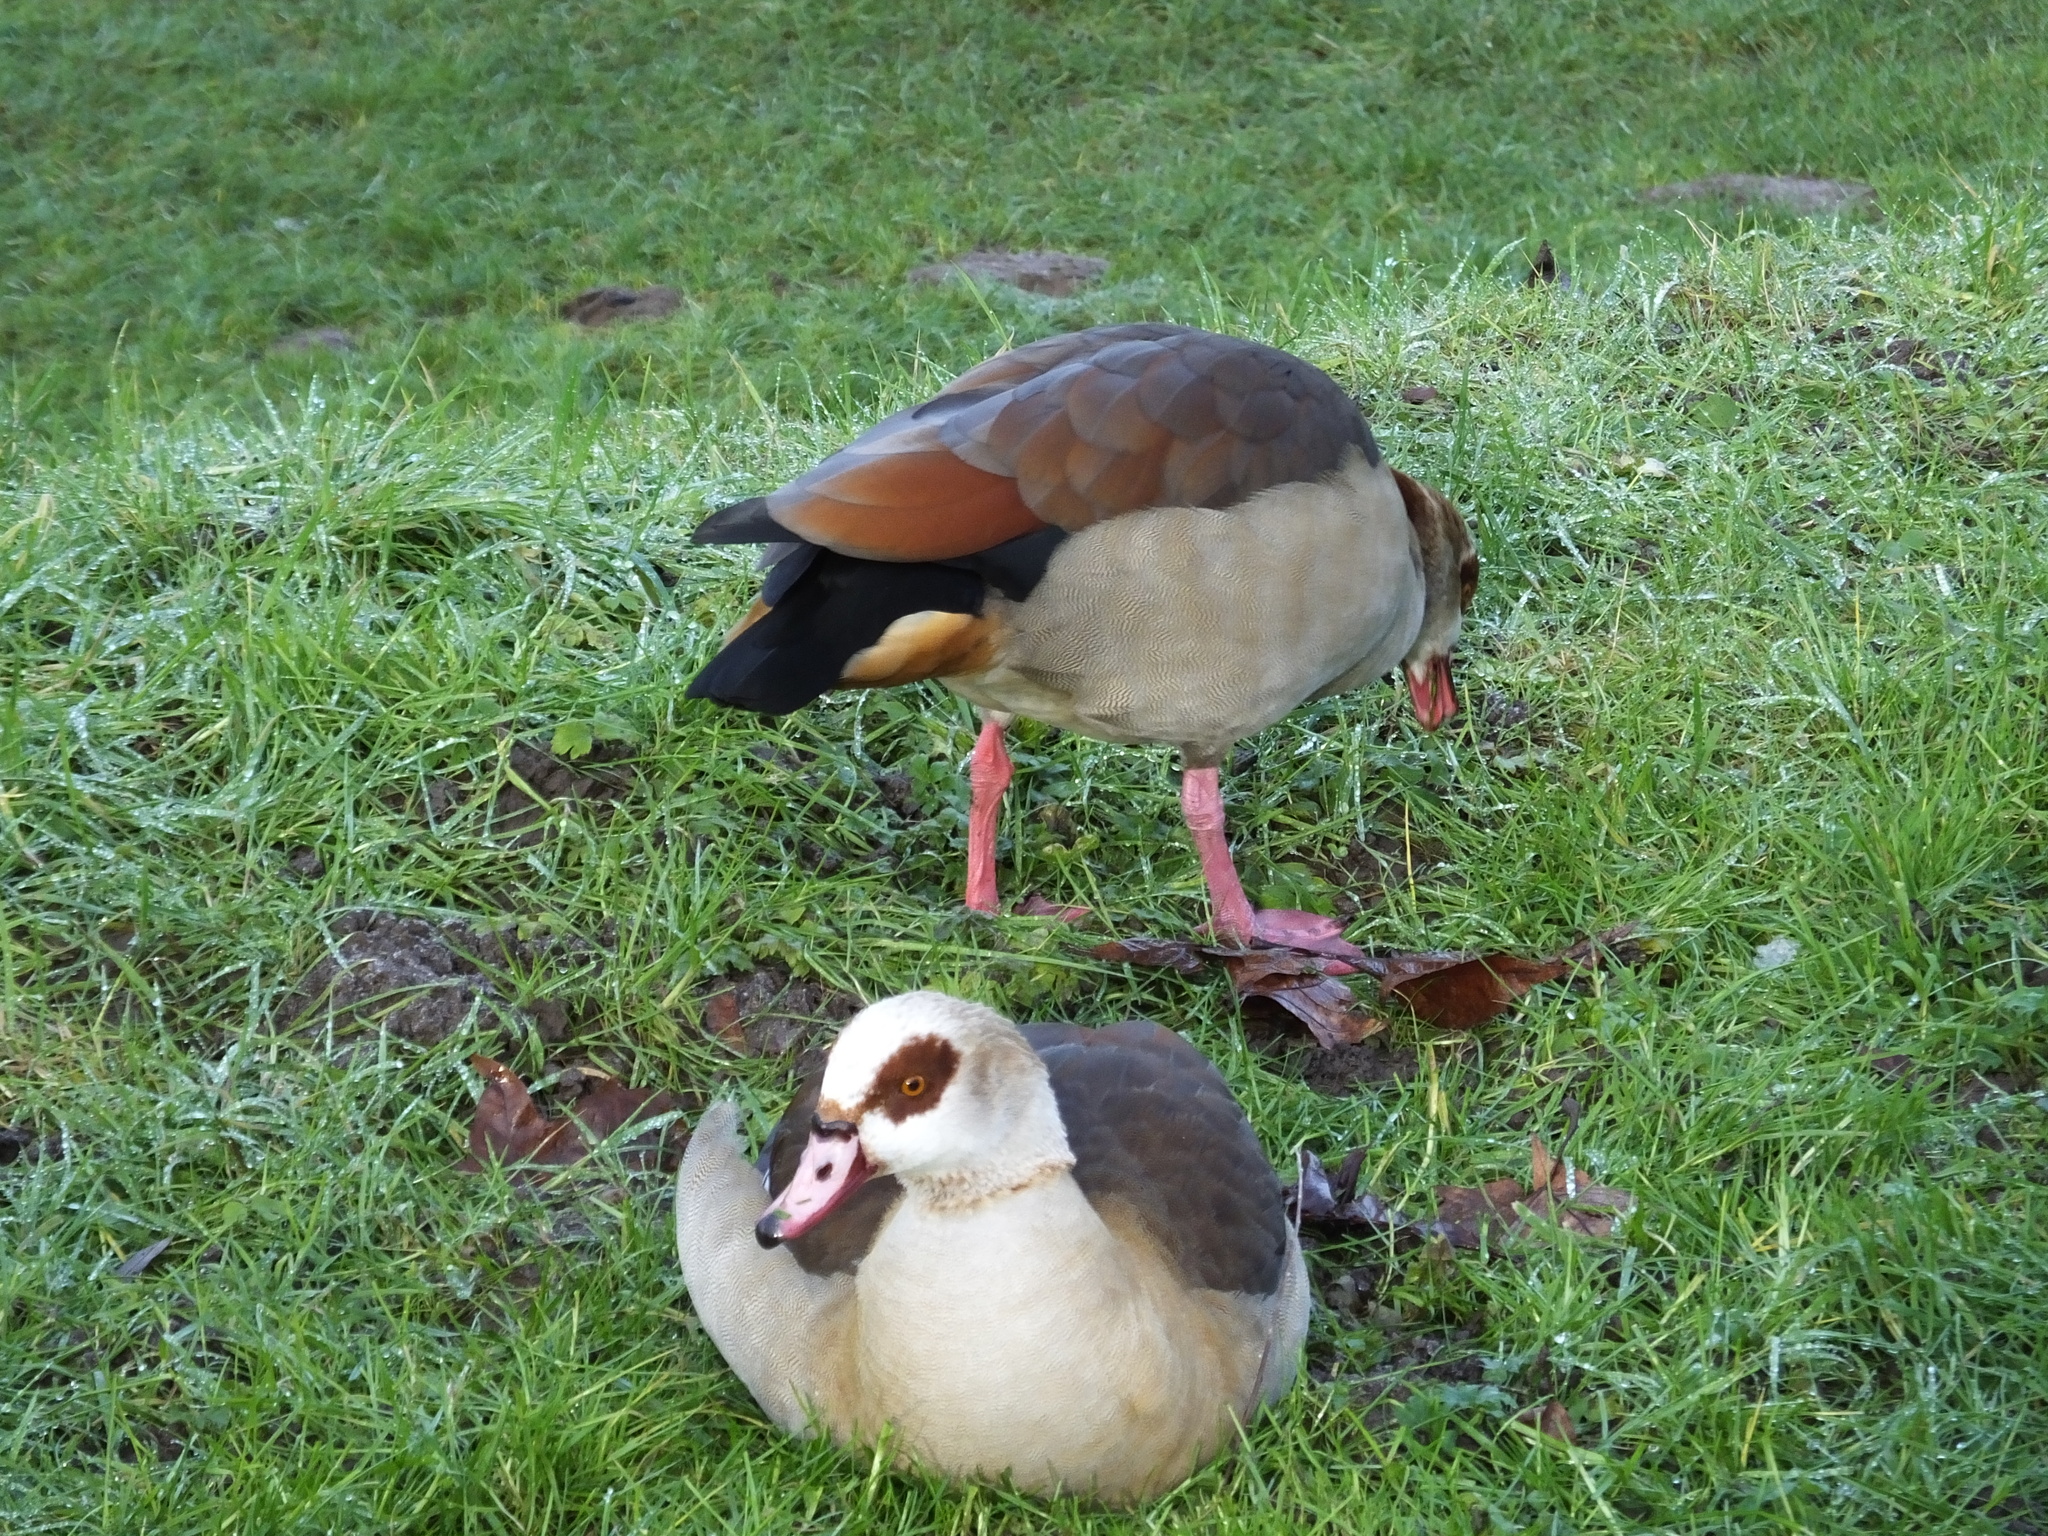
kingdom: Animalia
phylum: Chordata
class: Aves
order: Anseriformes
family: Anatidae
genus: Alopochen
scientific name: Alopochen aegyptiaca
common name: Egyptian goose
